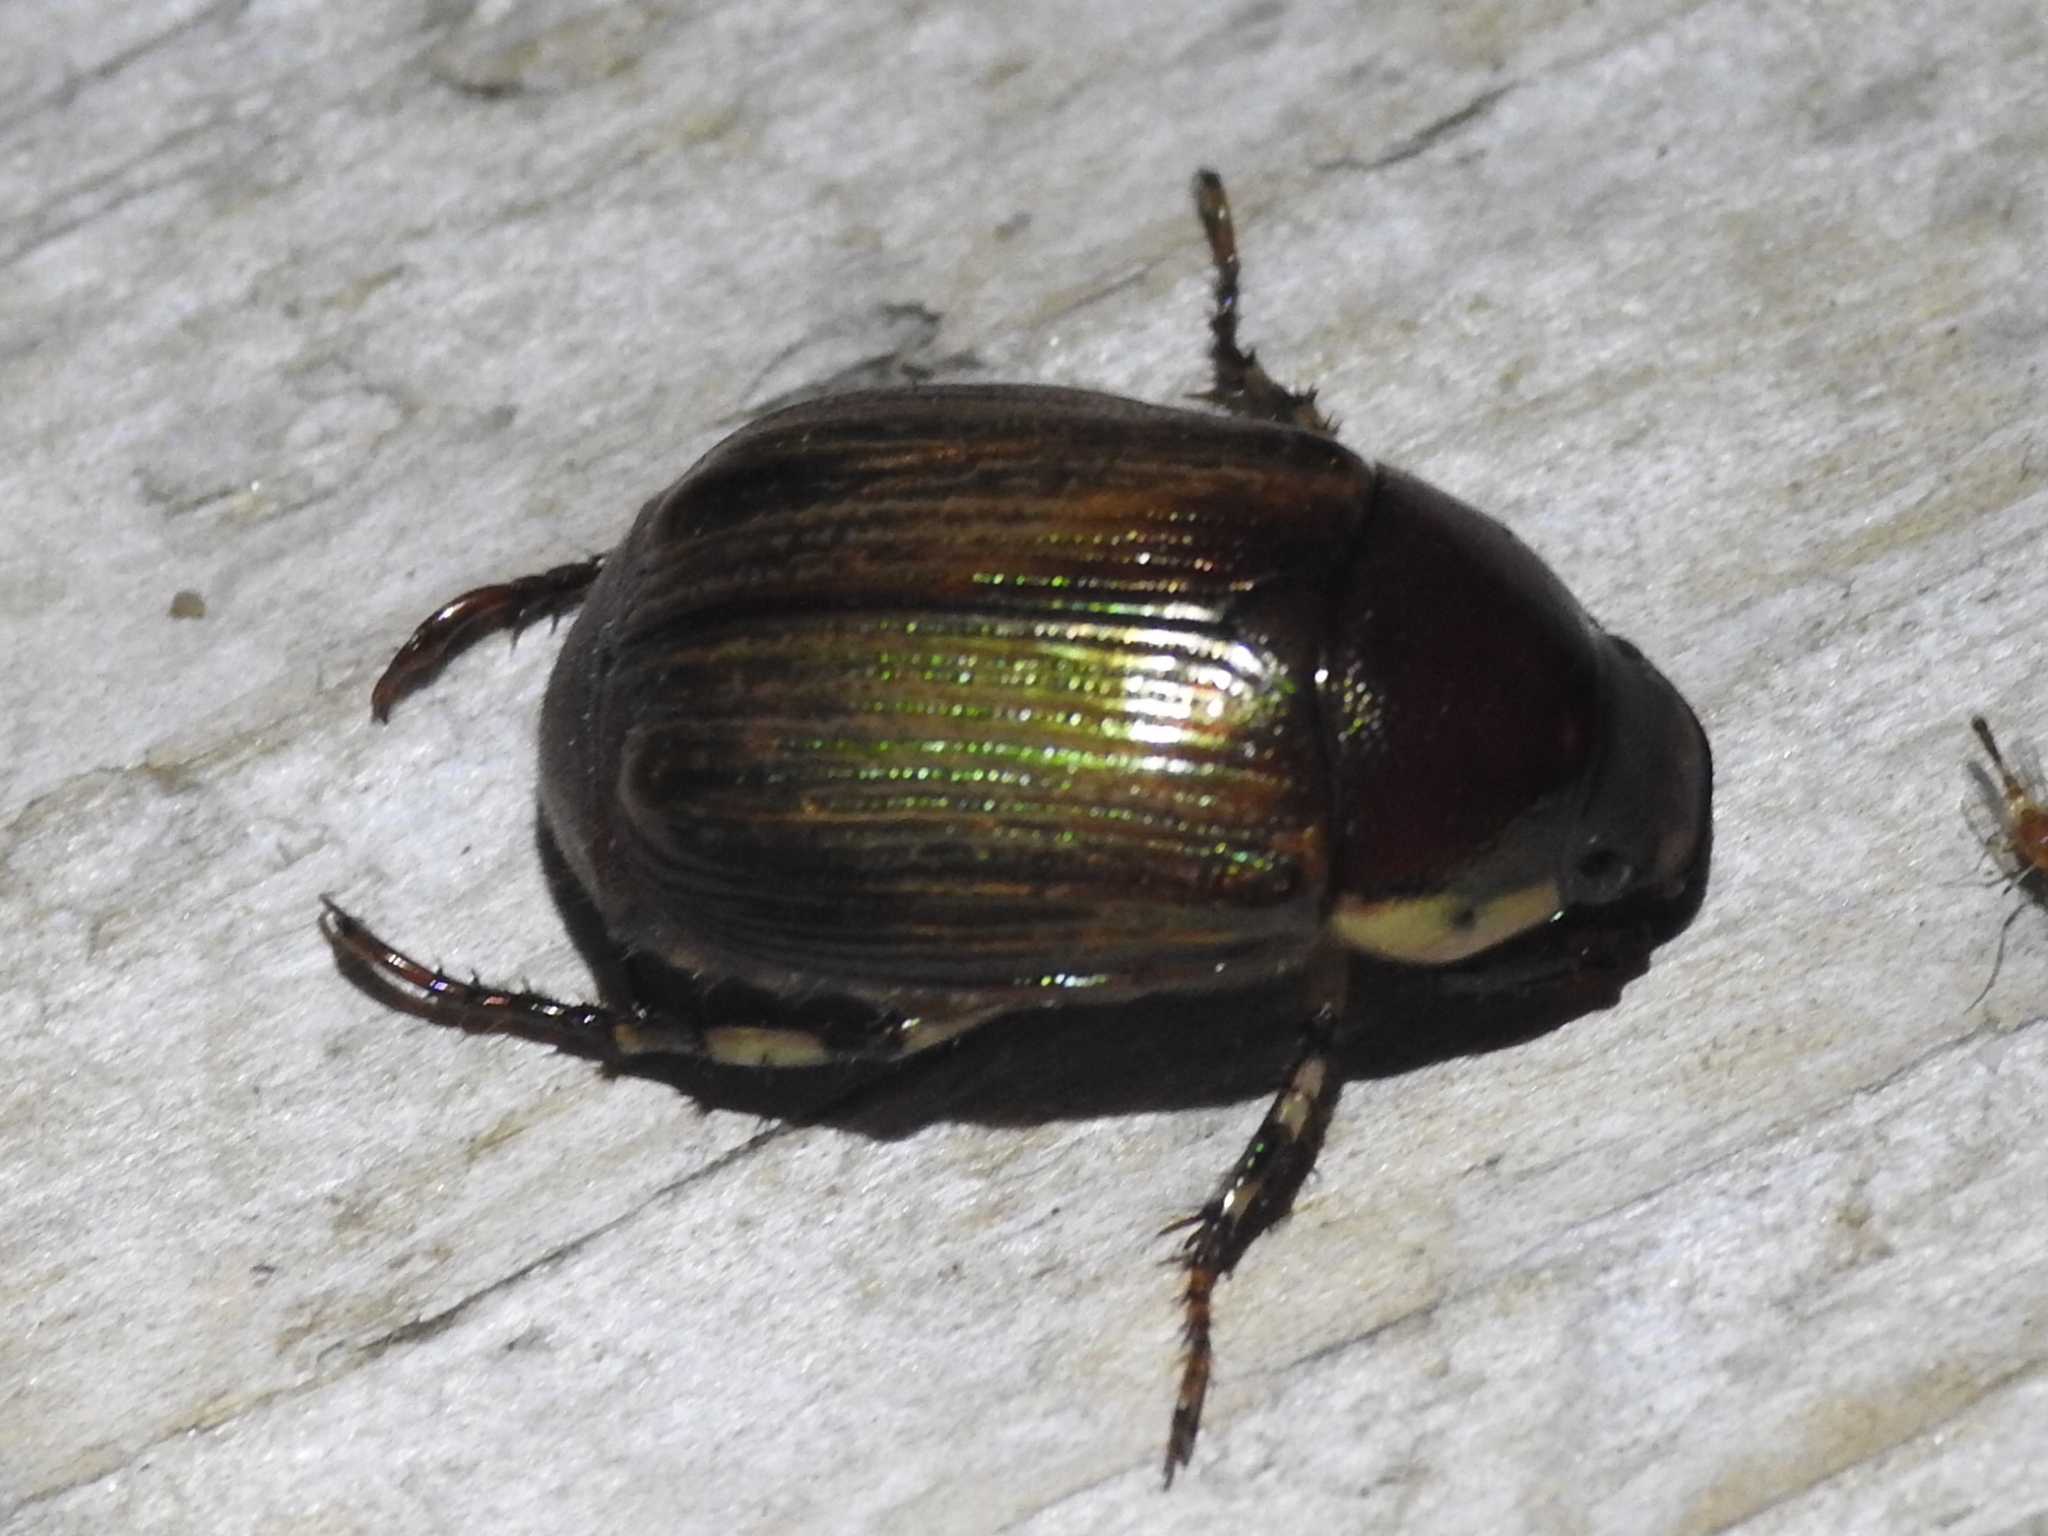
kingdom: Animalia
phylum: Arthropoda
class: Insecta
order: Coleoptera
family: Scarabaeidae
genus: Callistethus
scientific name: Callistethus marginatus
